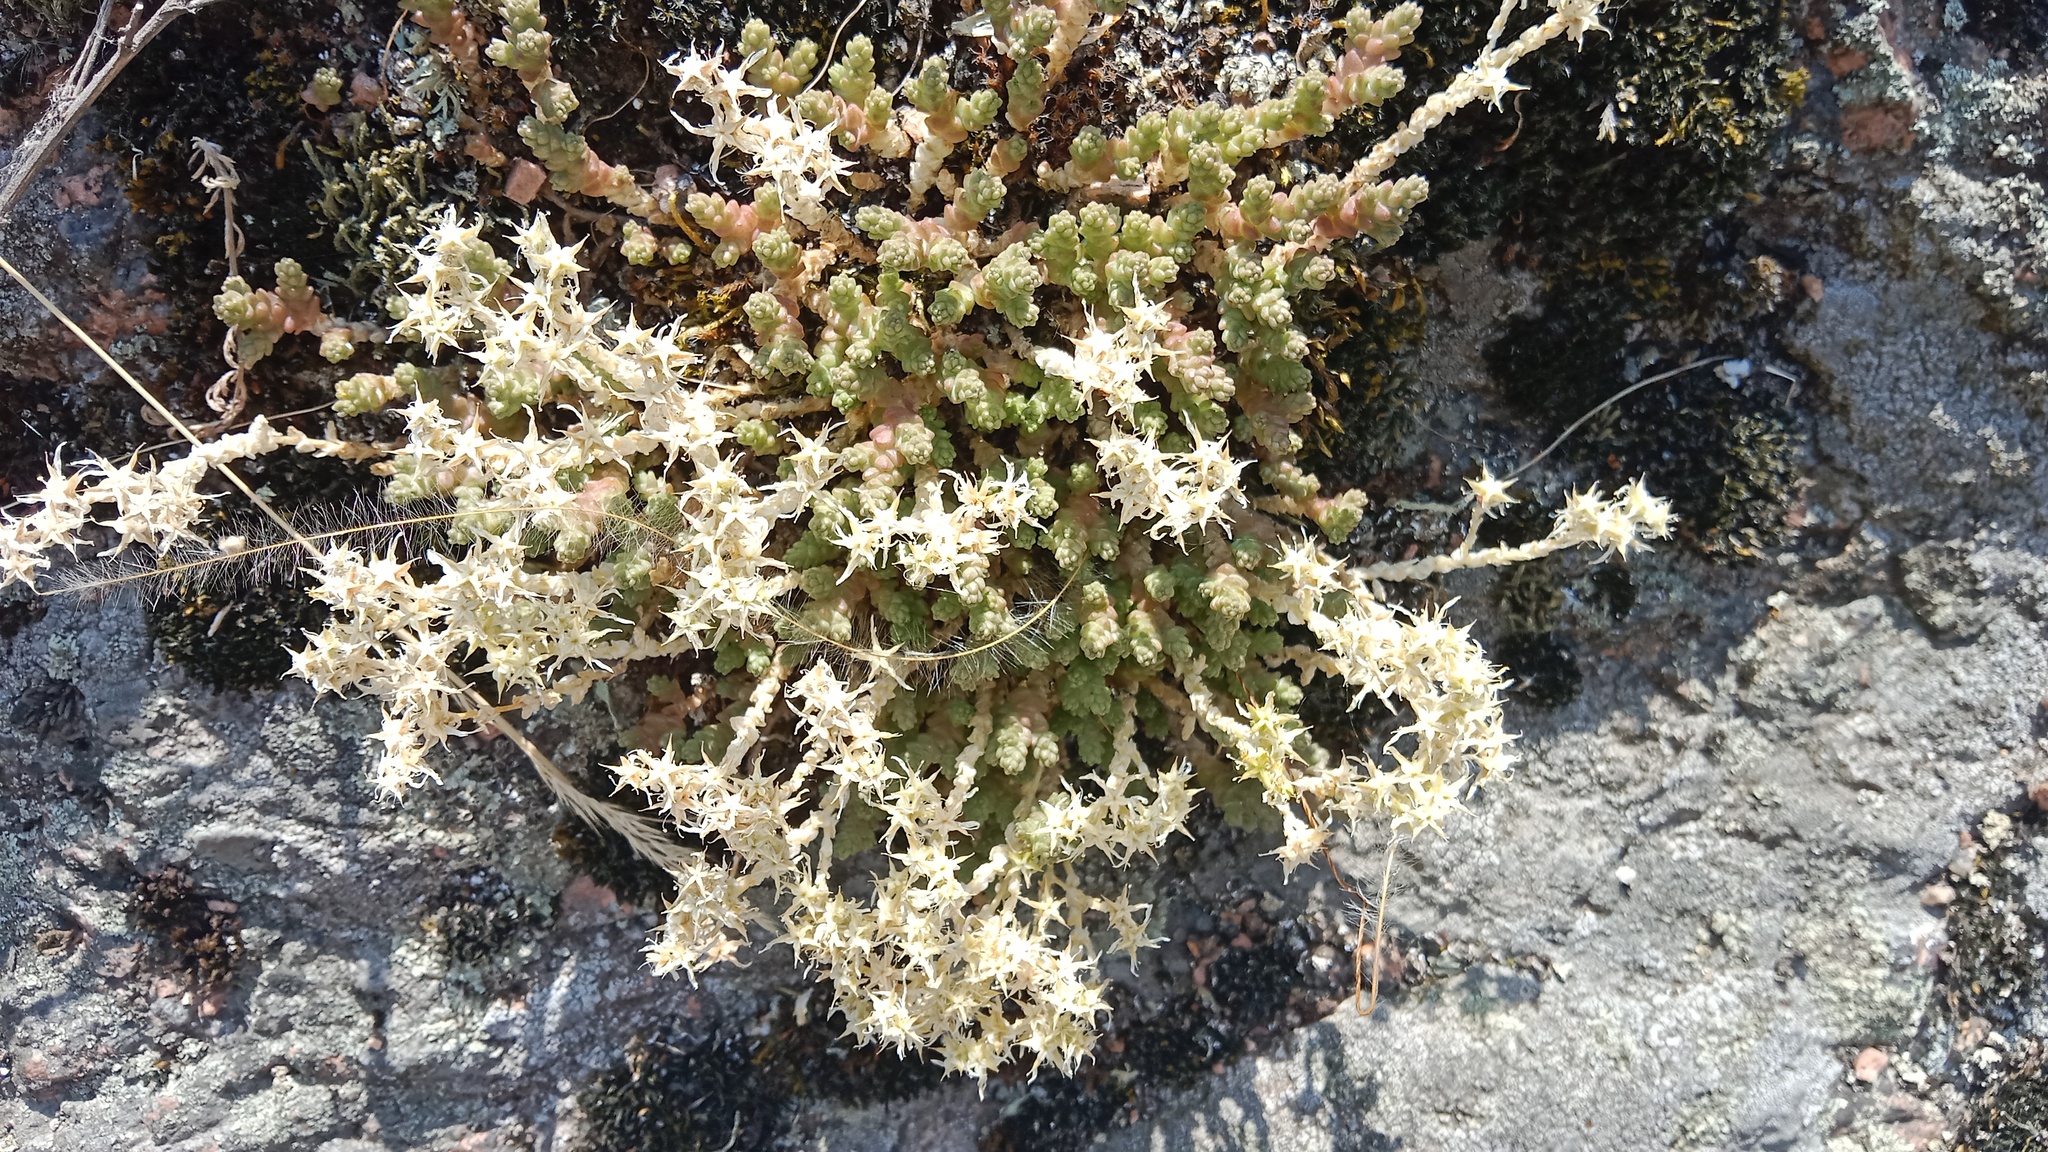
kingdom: Plantae
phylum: Tracheophyta
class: Magnoliopsida
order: Saxifragales
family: Crassulaceae
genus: Sedum
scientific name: Sedum acre
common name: Biting stonecrop
